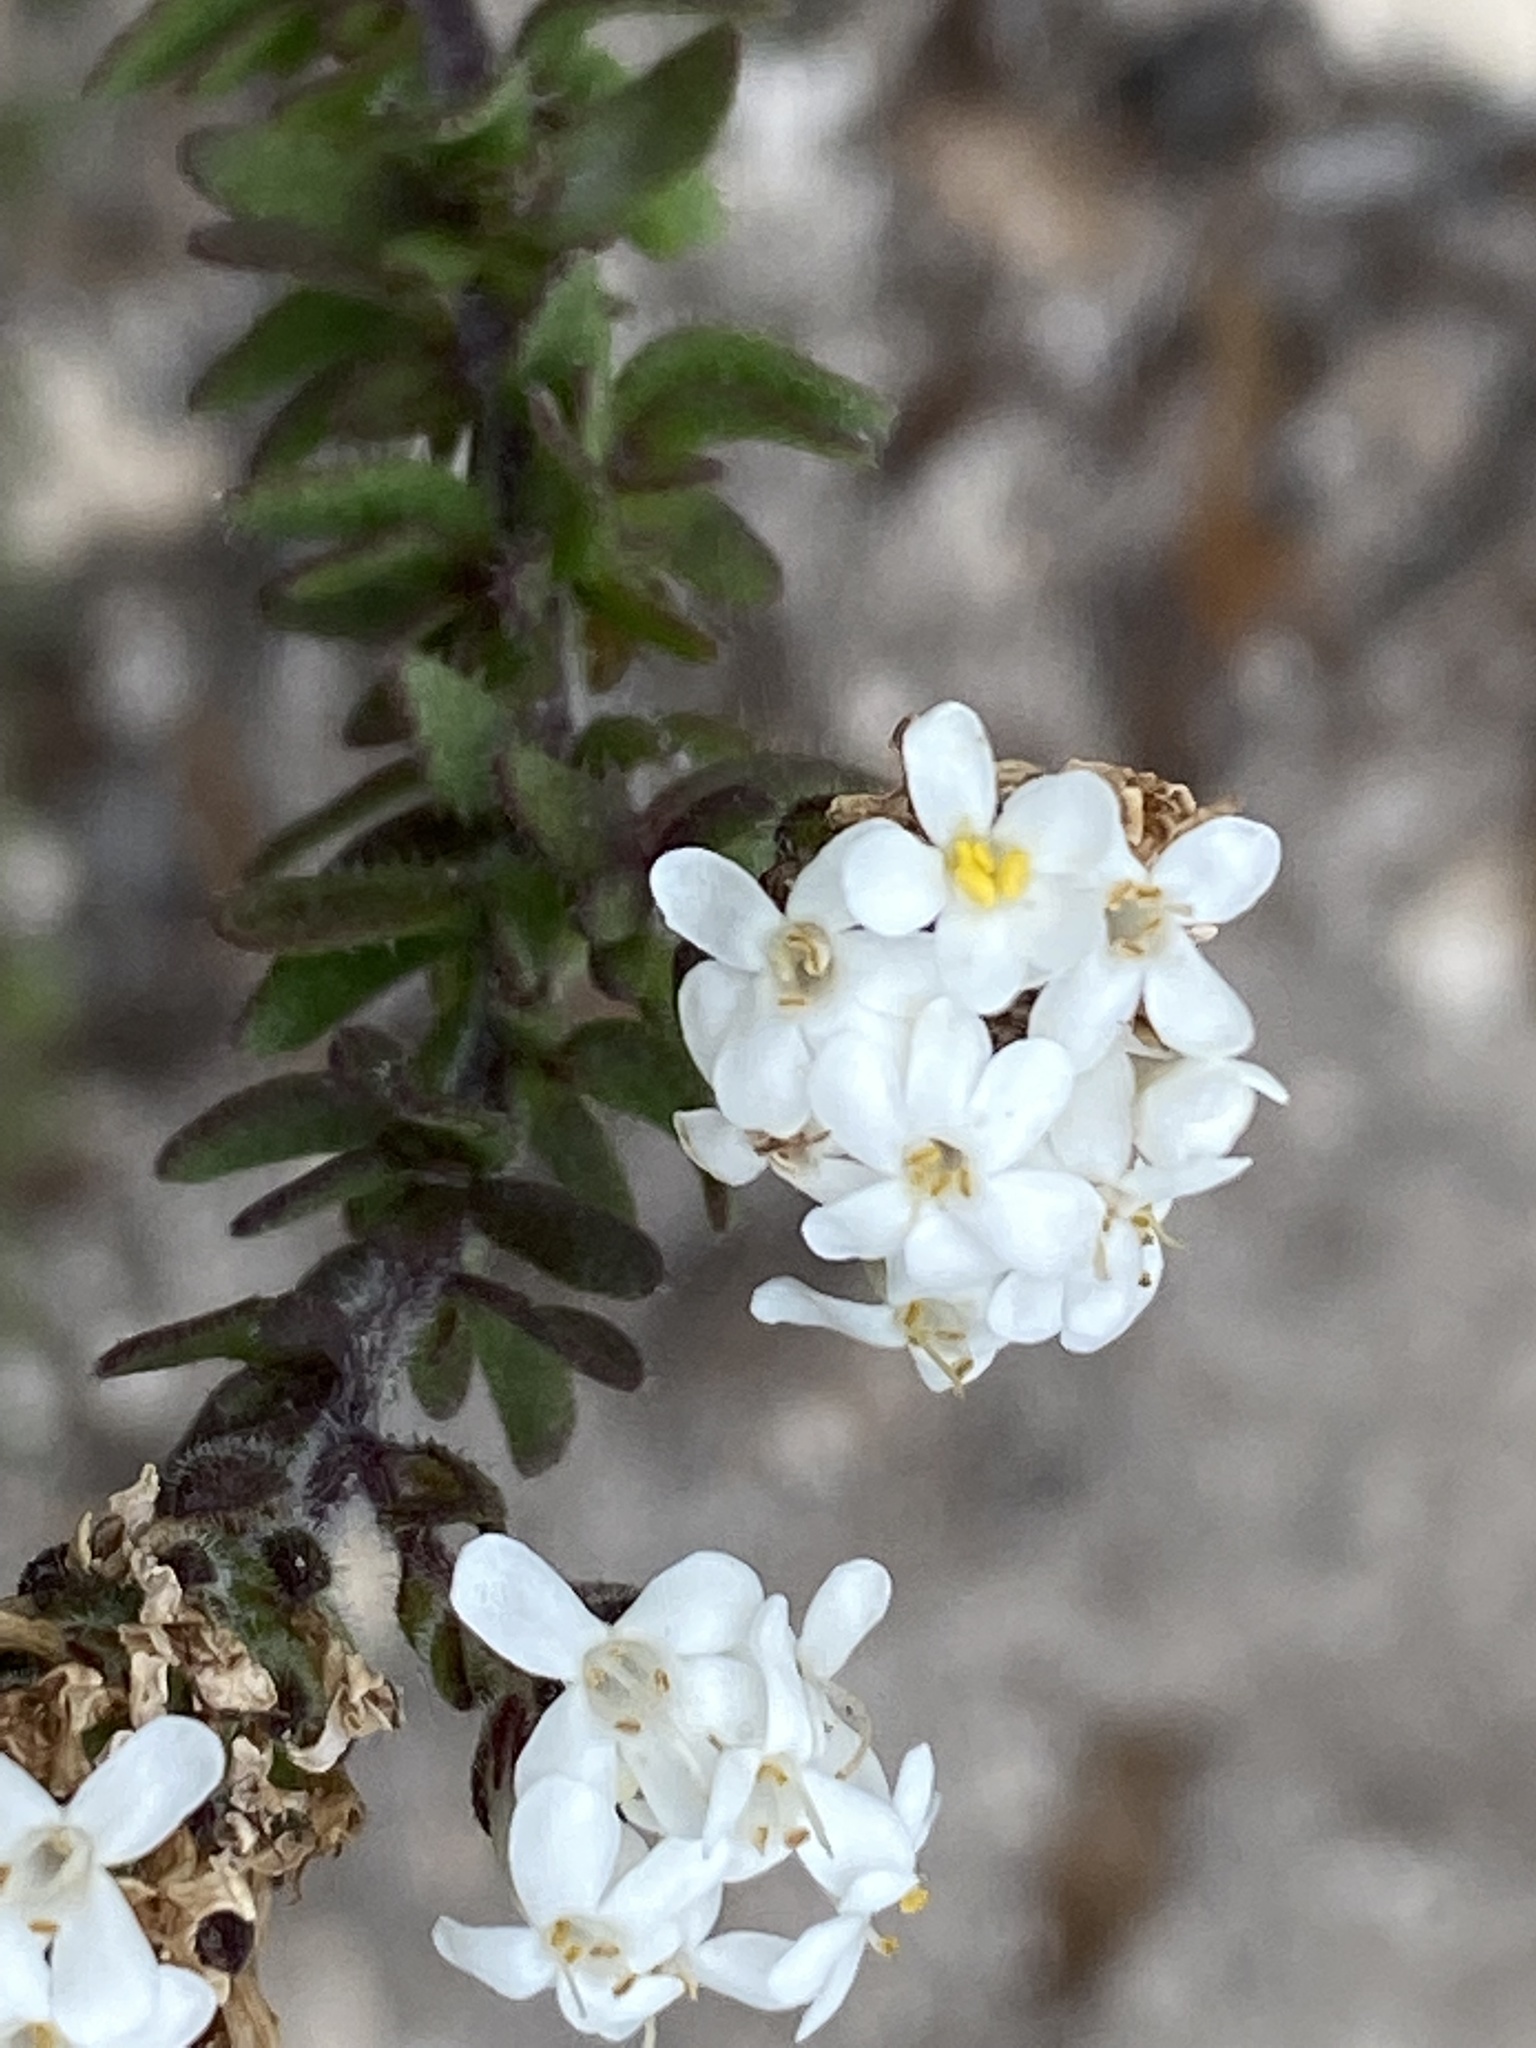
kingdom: Plantae
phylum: Tracheophyta
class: Magnoliopsida
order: Lamiales
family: Scrophulariaceae
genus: Selago
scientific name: Selago setulosa
